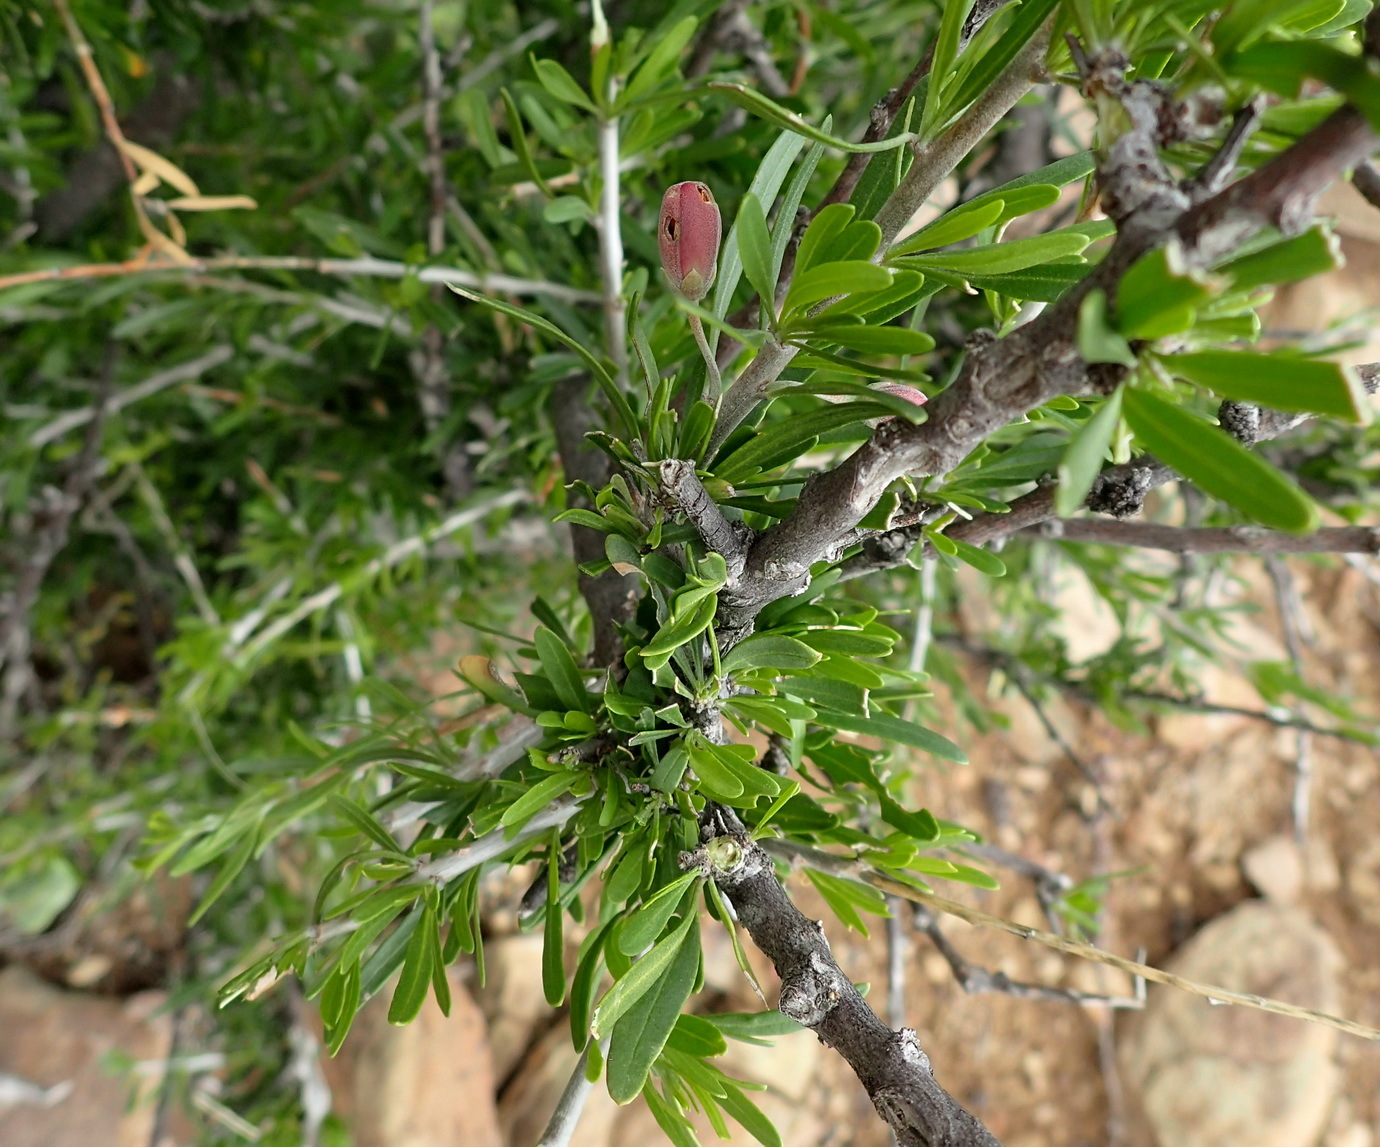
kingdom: Plantae
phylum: Tracheophyta
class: Magnoliopsida
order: Sapindales
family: Meliaceae
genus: Nymania
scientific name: Nymania capensis
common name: Chinese lantern tree
